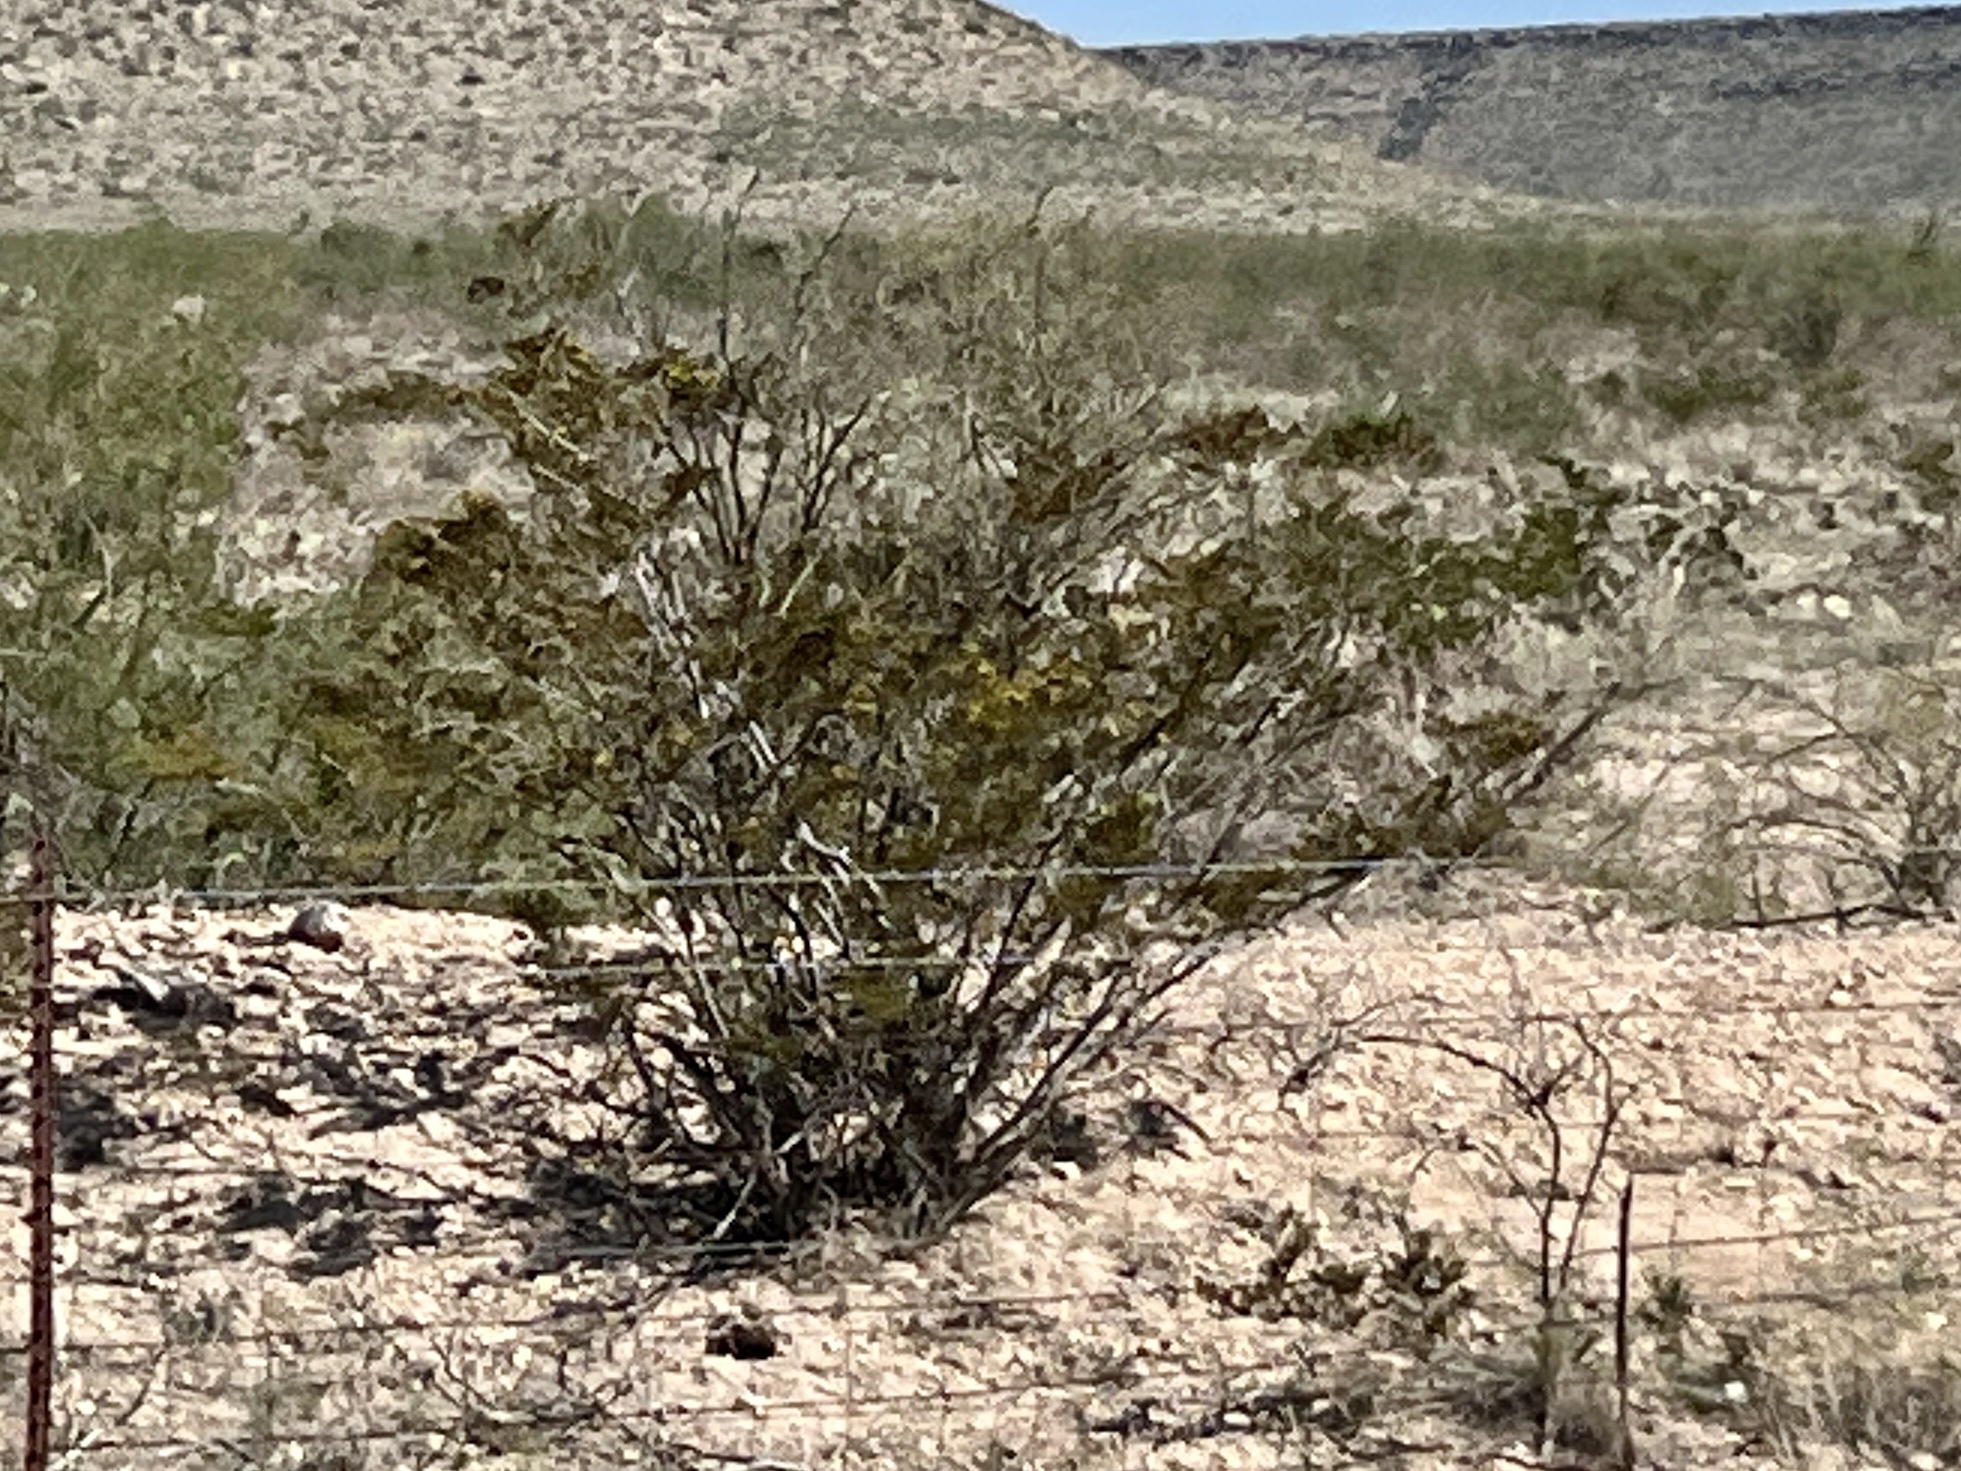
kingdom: Plantae
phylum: Tracheophyta
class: Magnoliopsida
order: Zygophyllales
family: Zygophyllaceae
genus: Larrea
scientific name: Larrea tridentata
